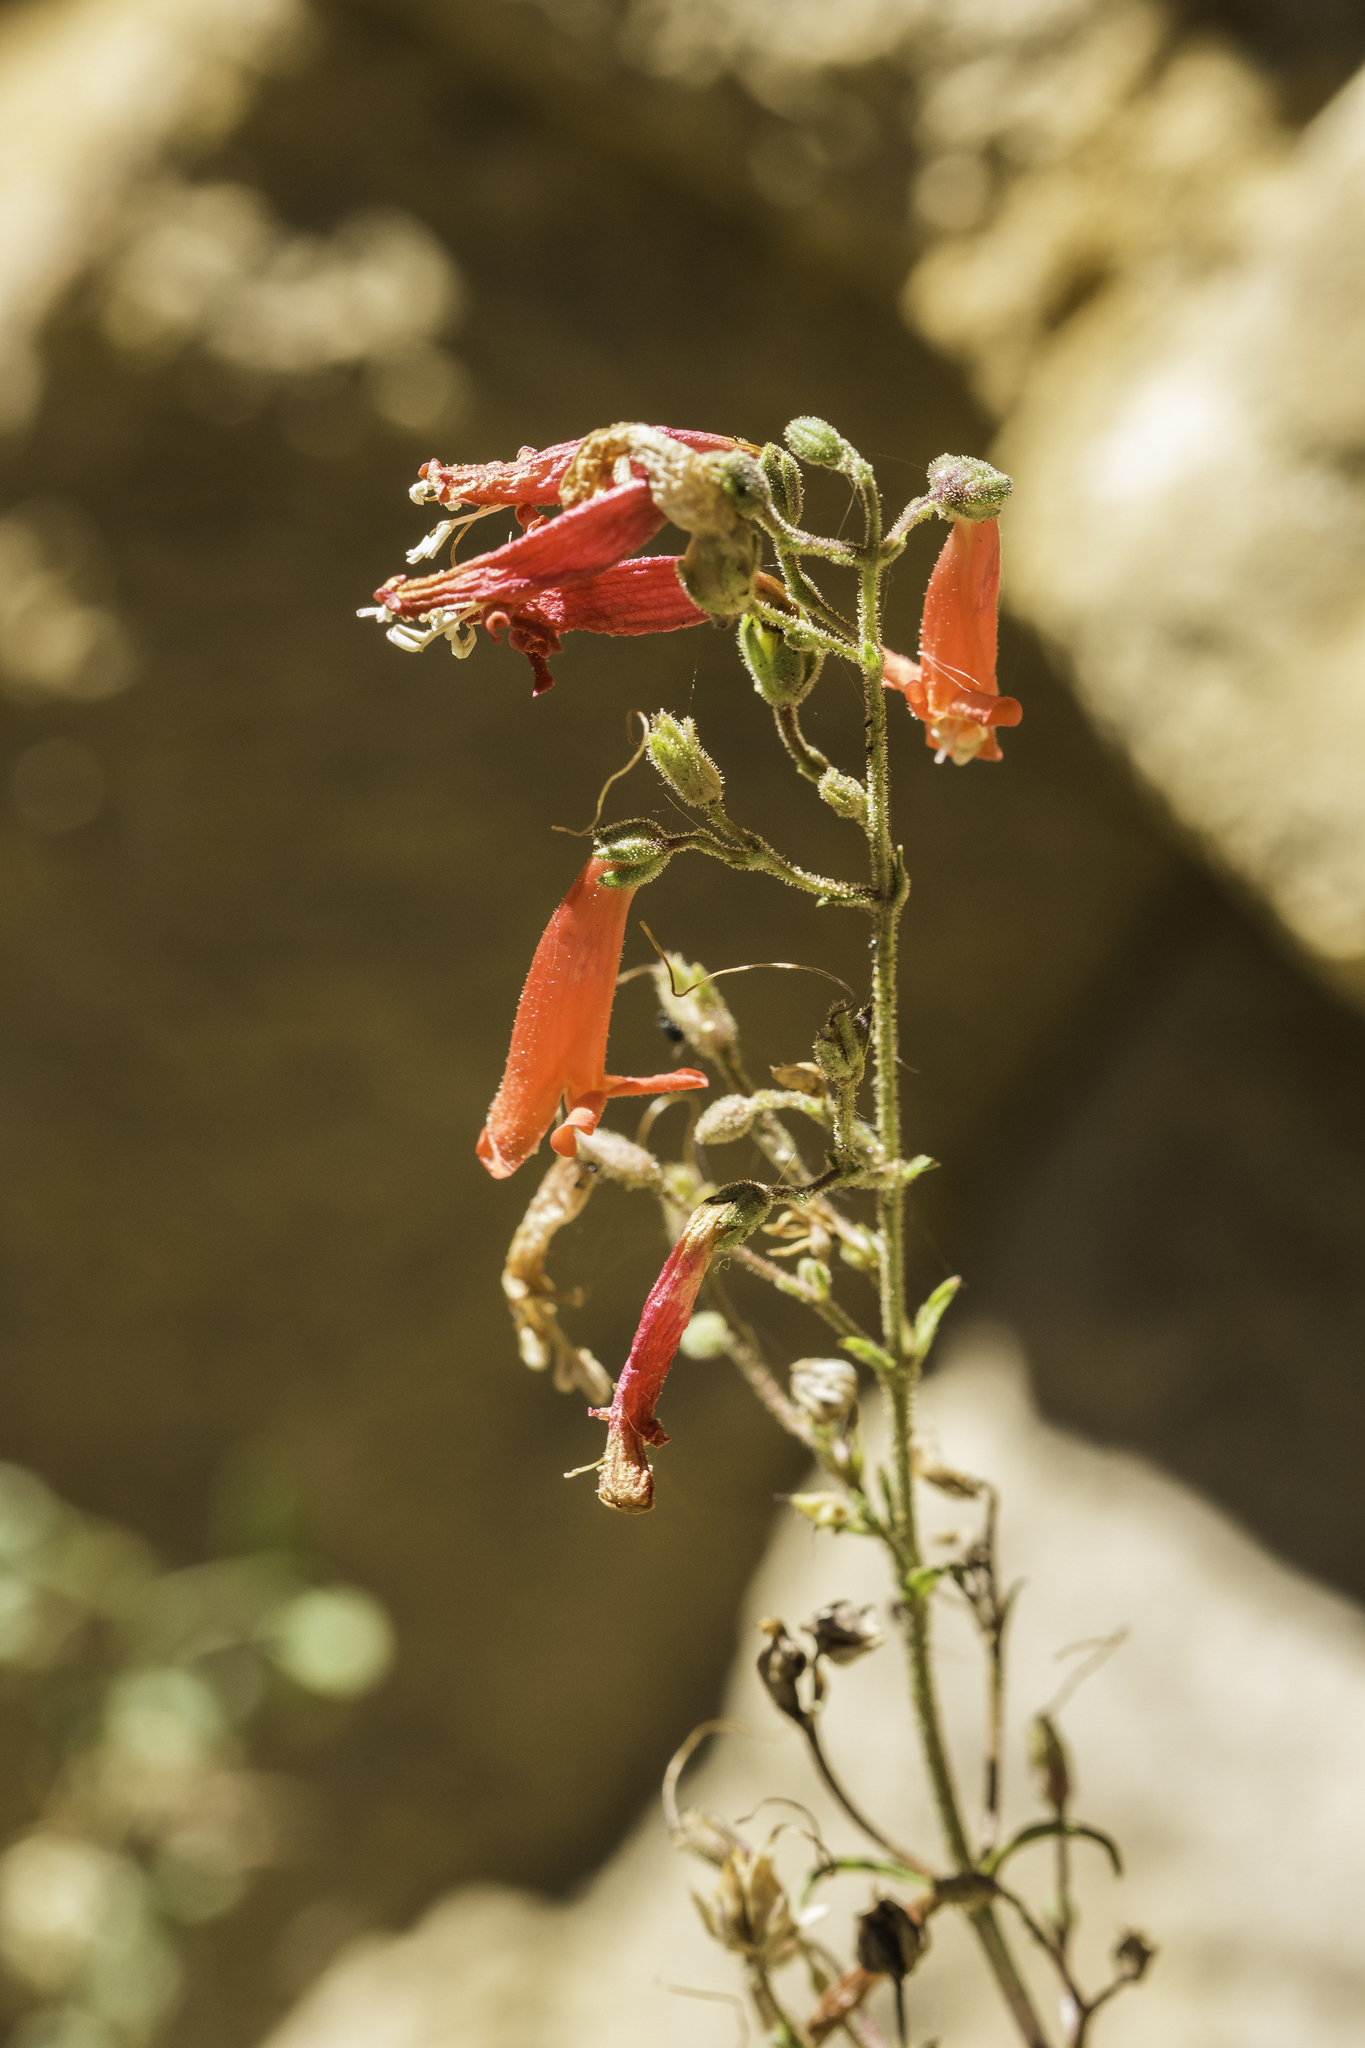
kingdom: Plantae
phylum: Tracheophyta
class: Magnoliopsida
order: Lamiales
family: Plantaginaceae
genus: Penstemon
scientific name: Penstemon rostriflorus
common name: Bridges's penstemon
